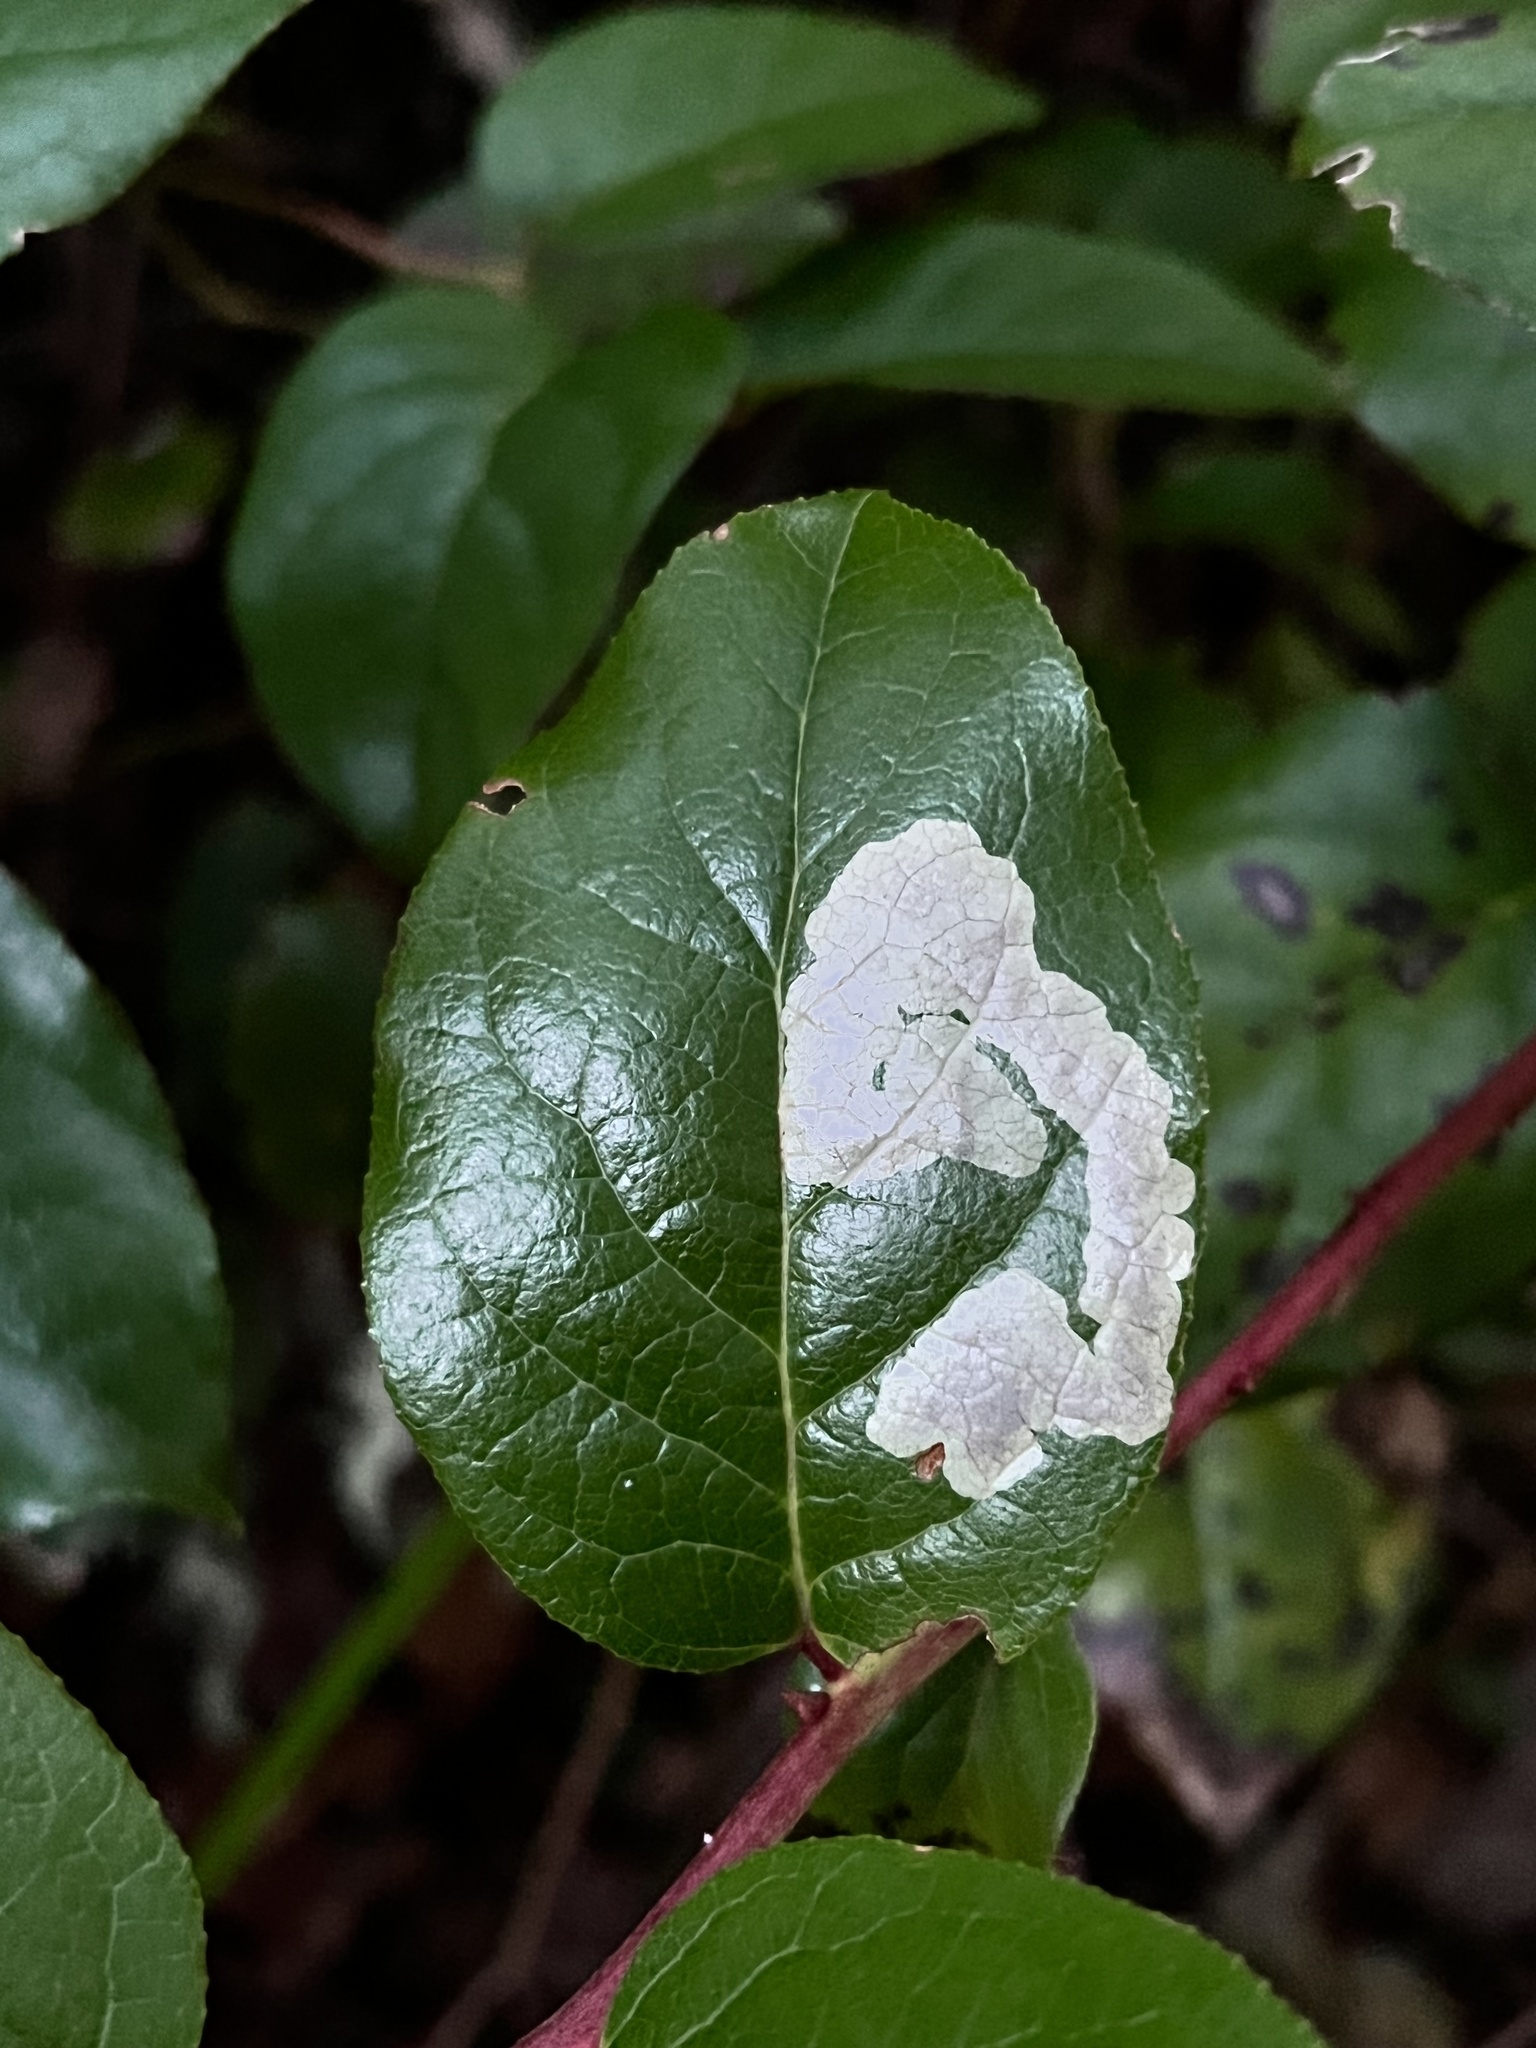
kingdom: Animalia
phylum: Arthropoda
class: Insecta
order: Lepidoptera
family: Gracillariidae
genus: Cameraria
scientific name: Cameraria gaultheriella
